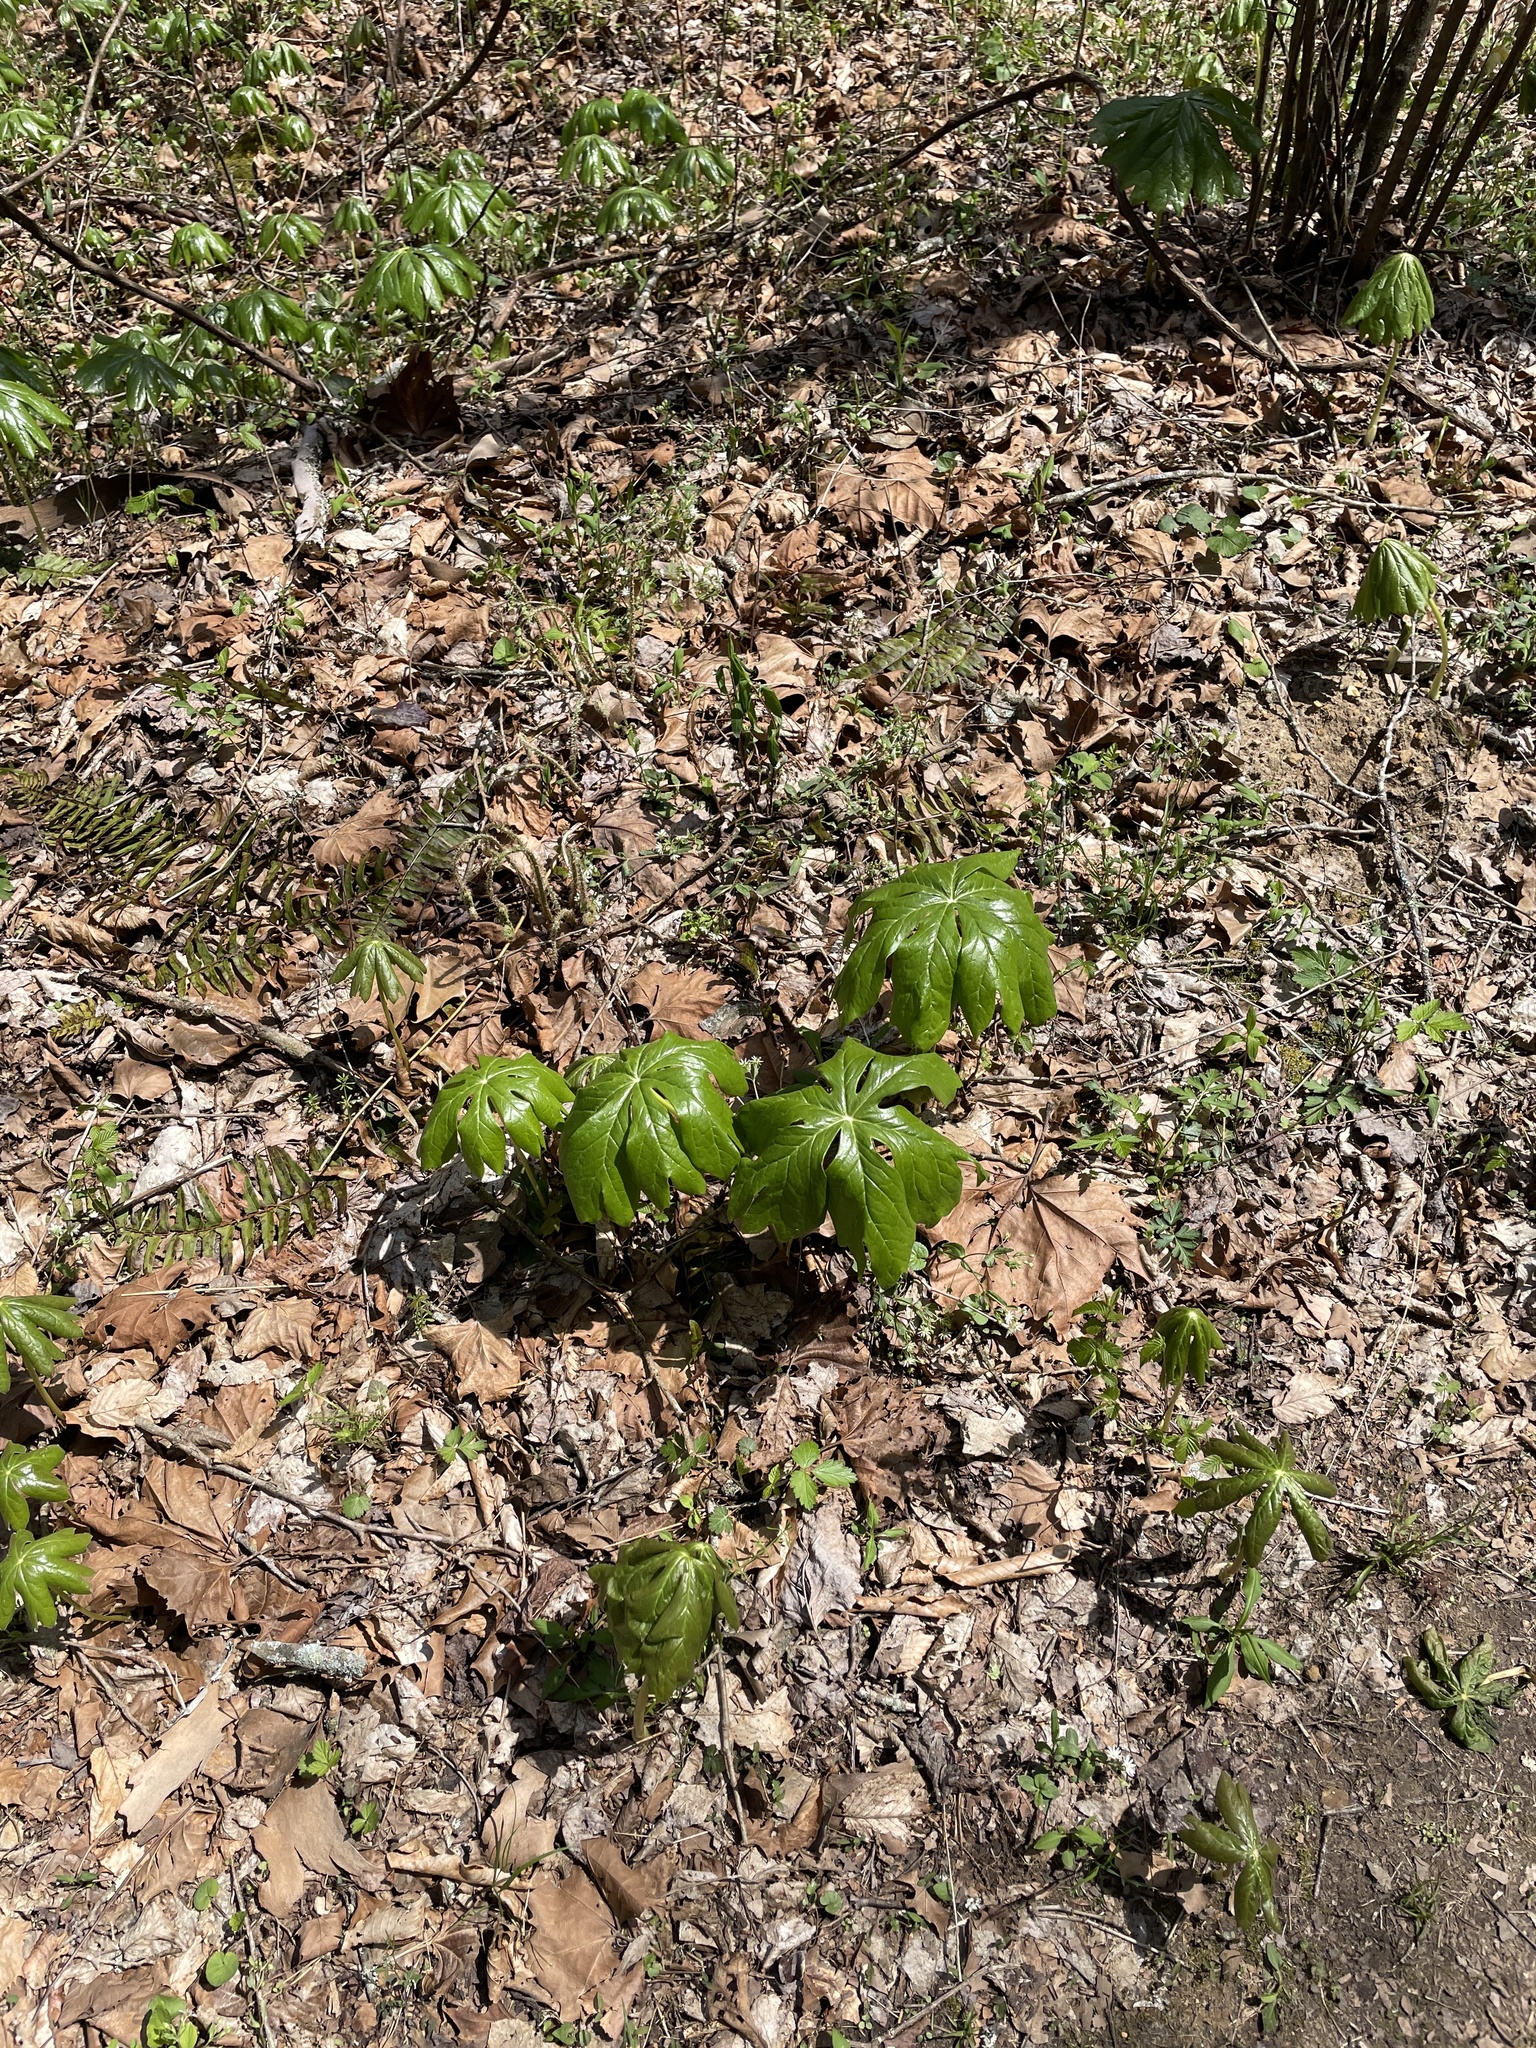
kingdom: Plantae
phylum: Tracheophyta
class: Magnoliopsida
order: Ranunculales
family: Berberidaceae
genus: Podophyllum
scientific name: Podophyllum peltatum
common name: Wild mandrake
